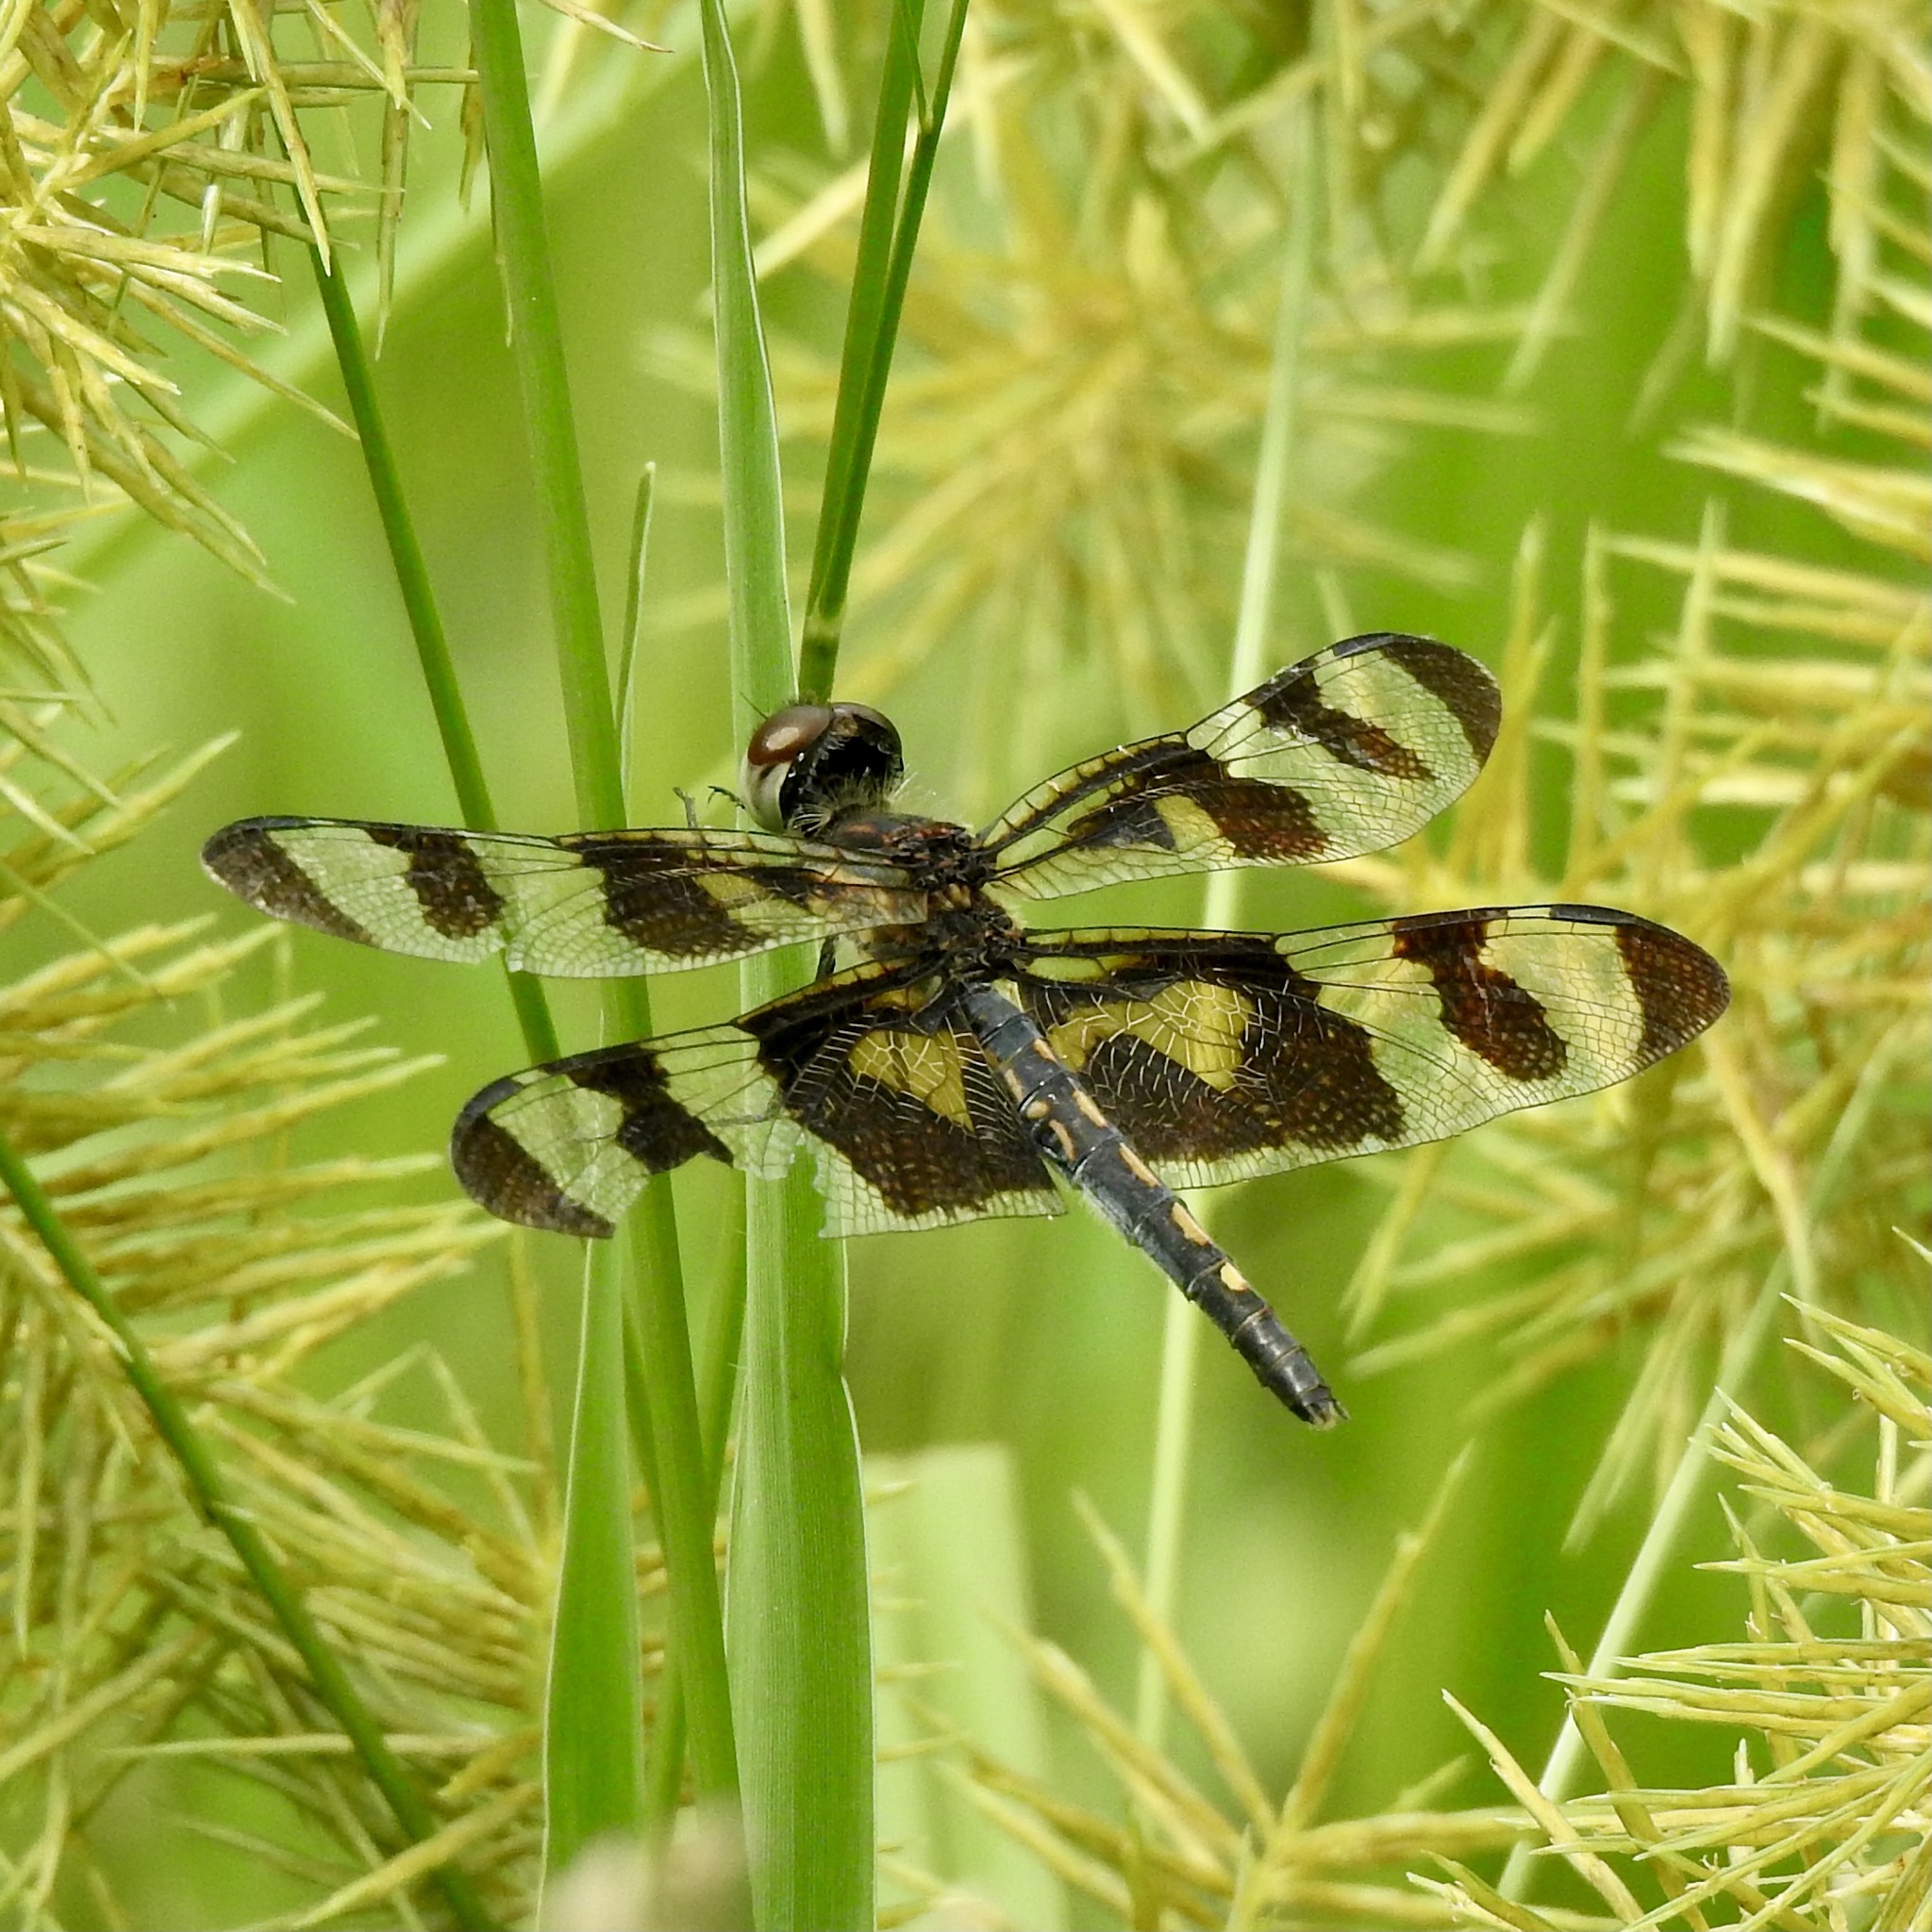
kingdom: Animalia
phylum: Arthropoda
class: Insecta
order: Odonata
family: Libellulidae
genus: Celithemis
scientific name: Celithemis fasciata
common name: Banded pennant
